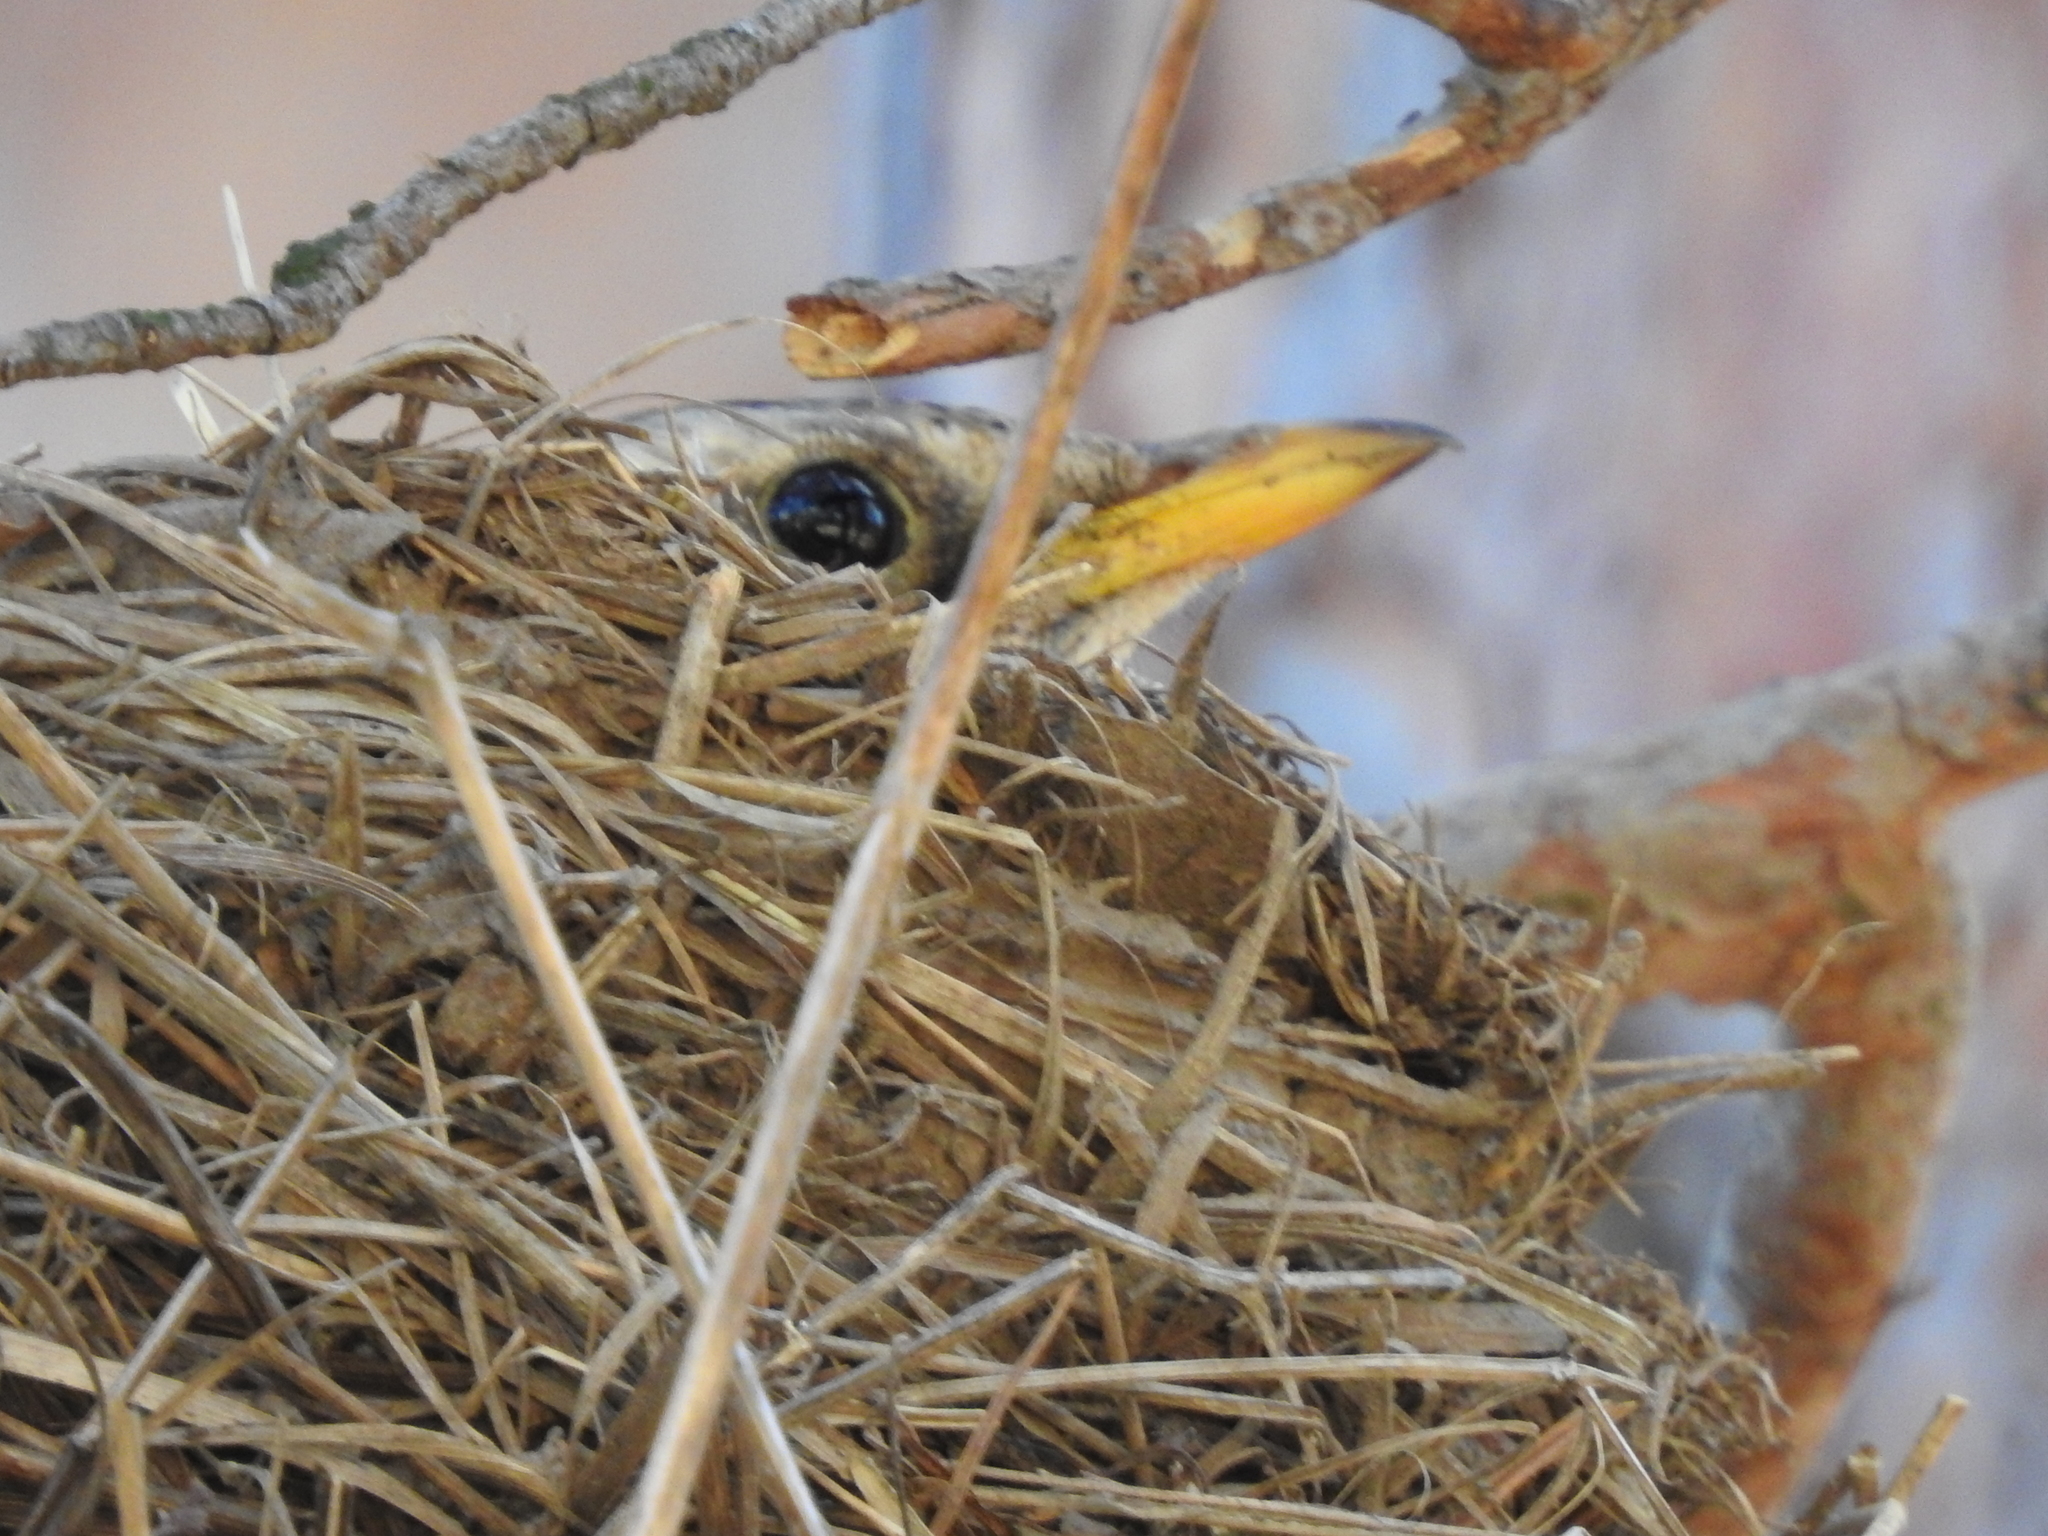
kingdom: Animalia
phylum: Chordata
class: Aves
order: Passeriformes
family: Turdidae
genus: Turdus
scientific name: Turdus pilaris
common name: Fieldfare
